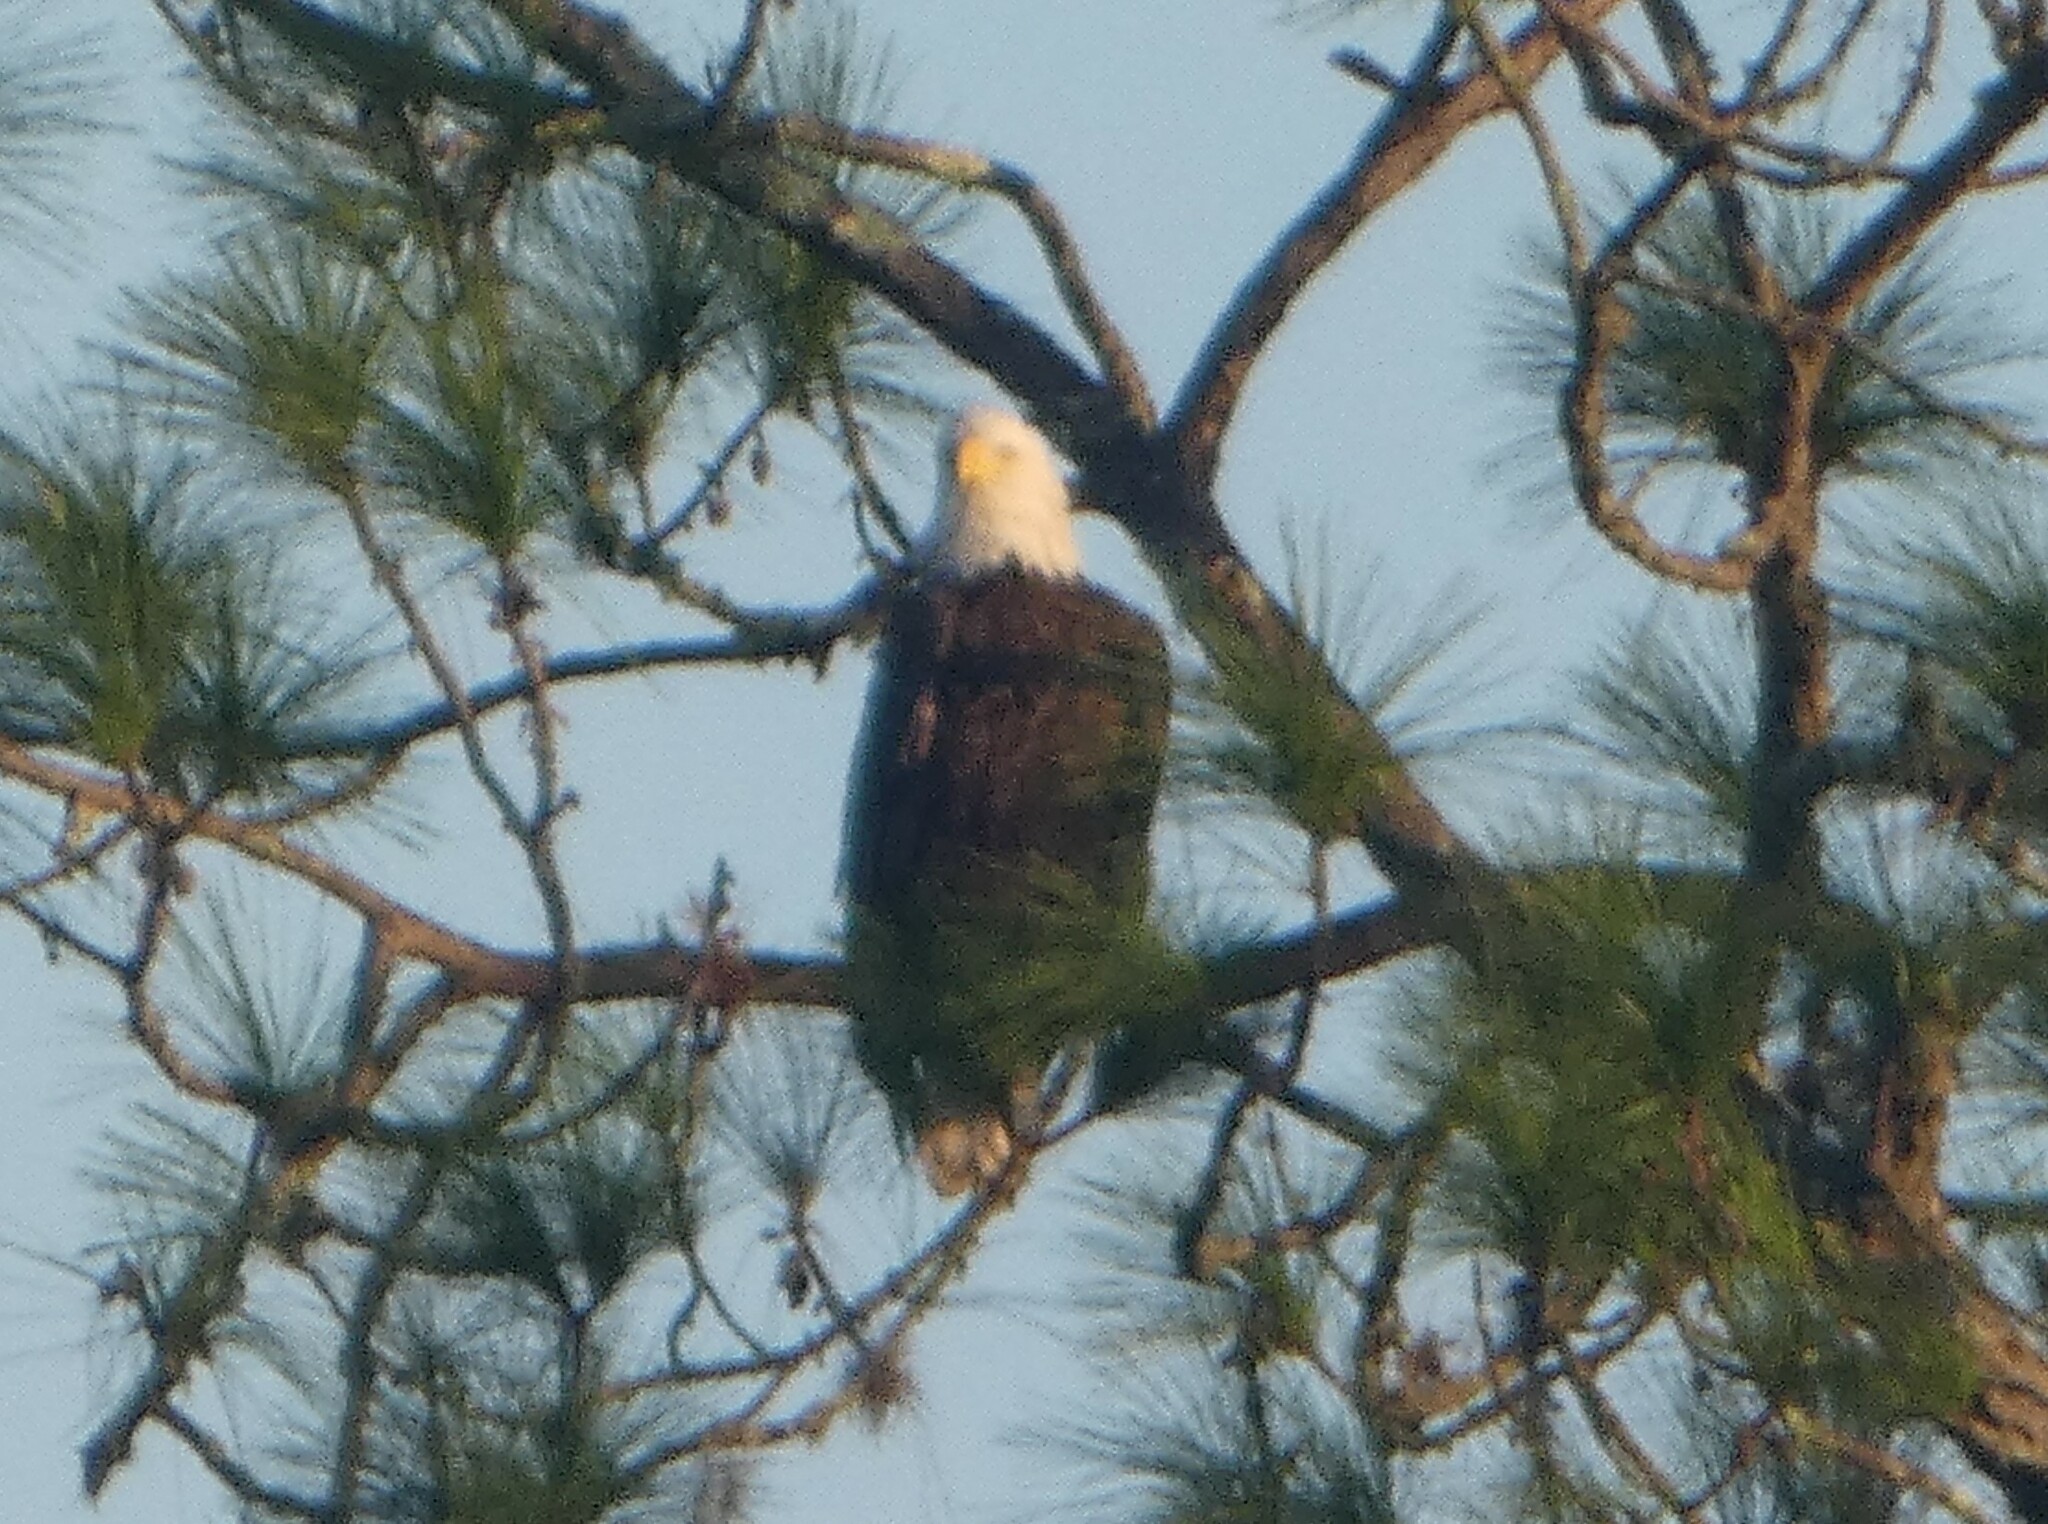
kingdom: Animalia
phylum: Chordata
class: Aves
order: Accipitriformes
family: Accipitridae
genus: Haliaeetus
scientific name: Haliaeetus leucocephalus
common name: Bald eagle
